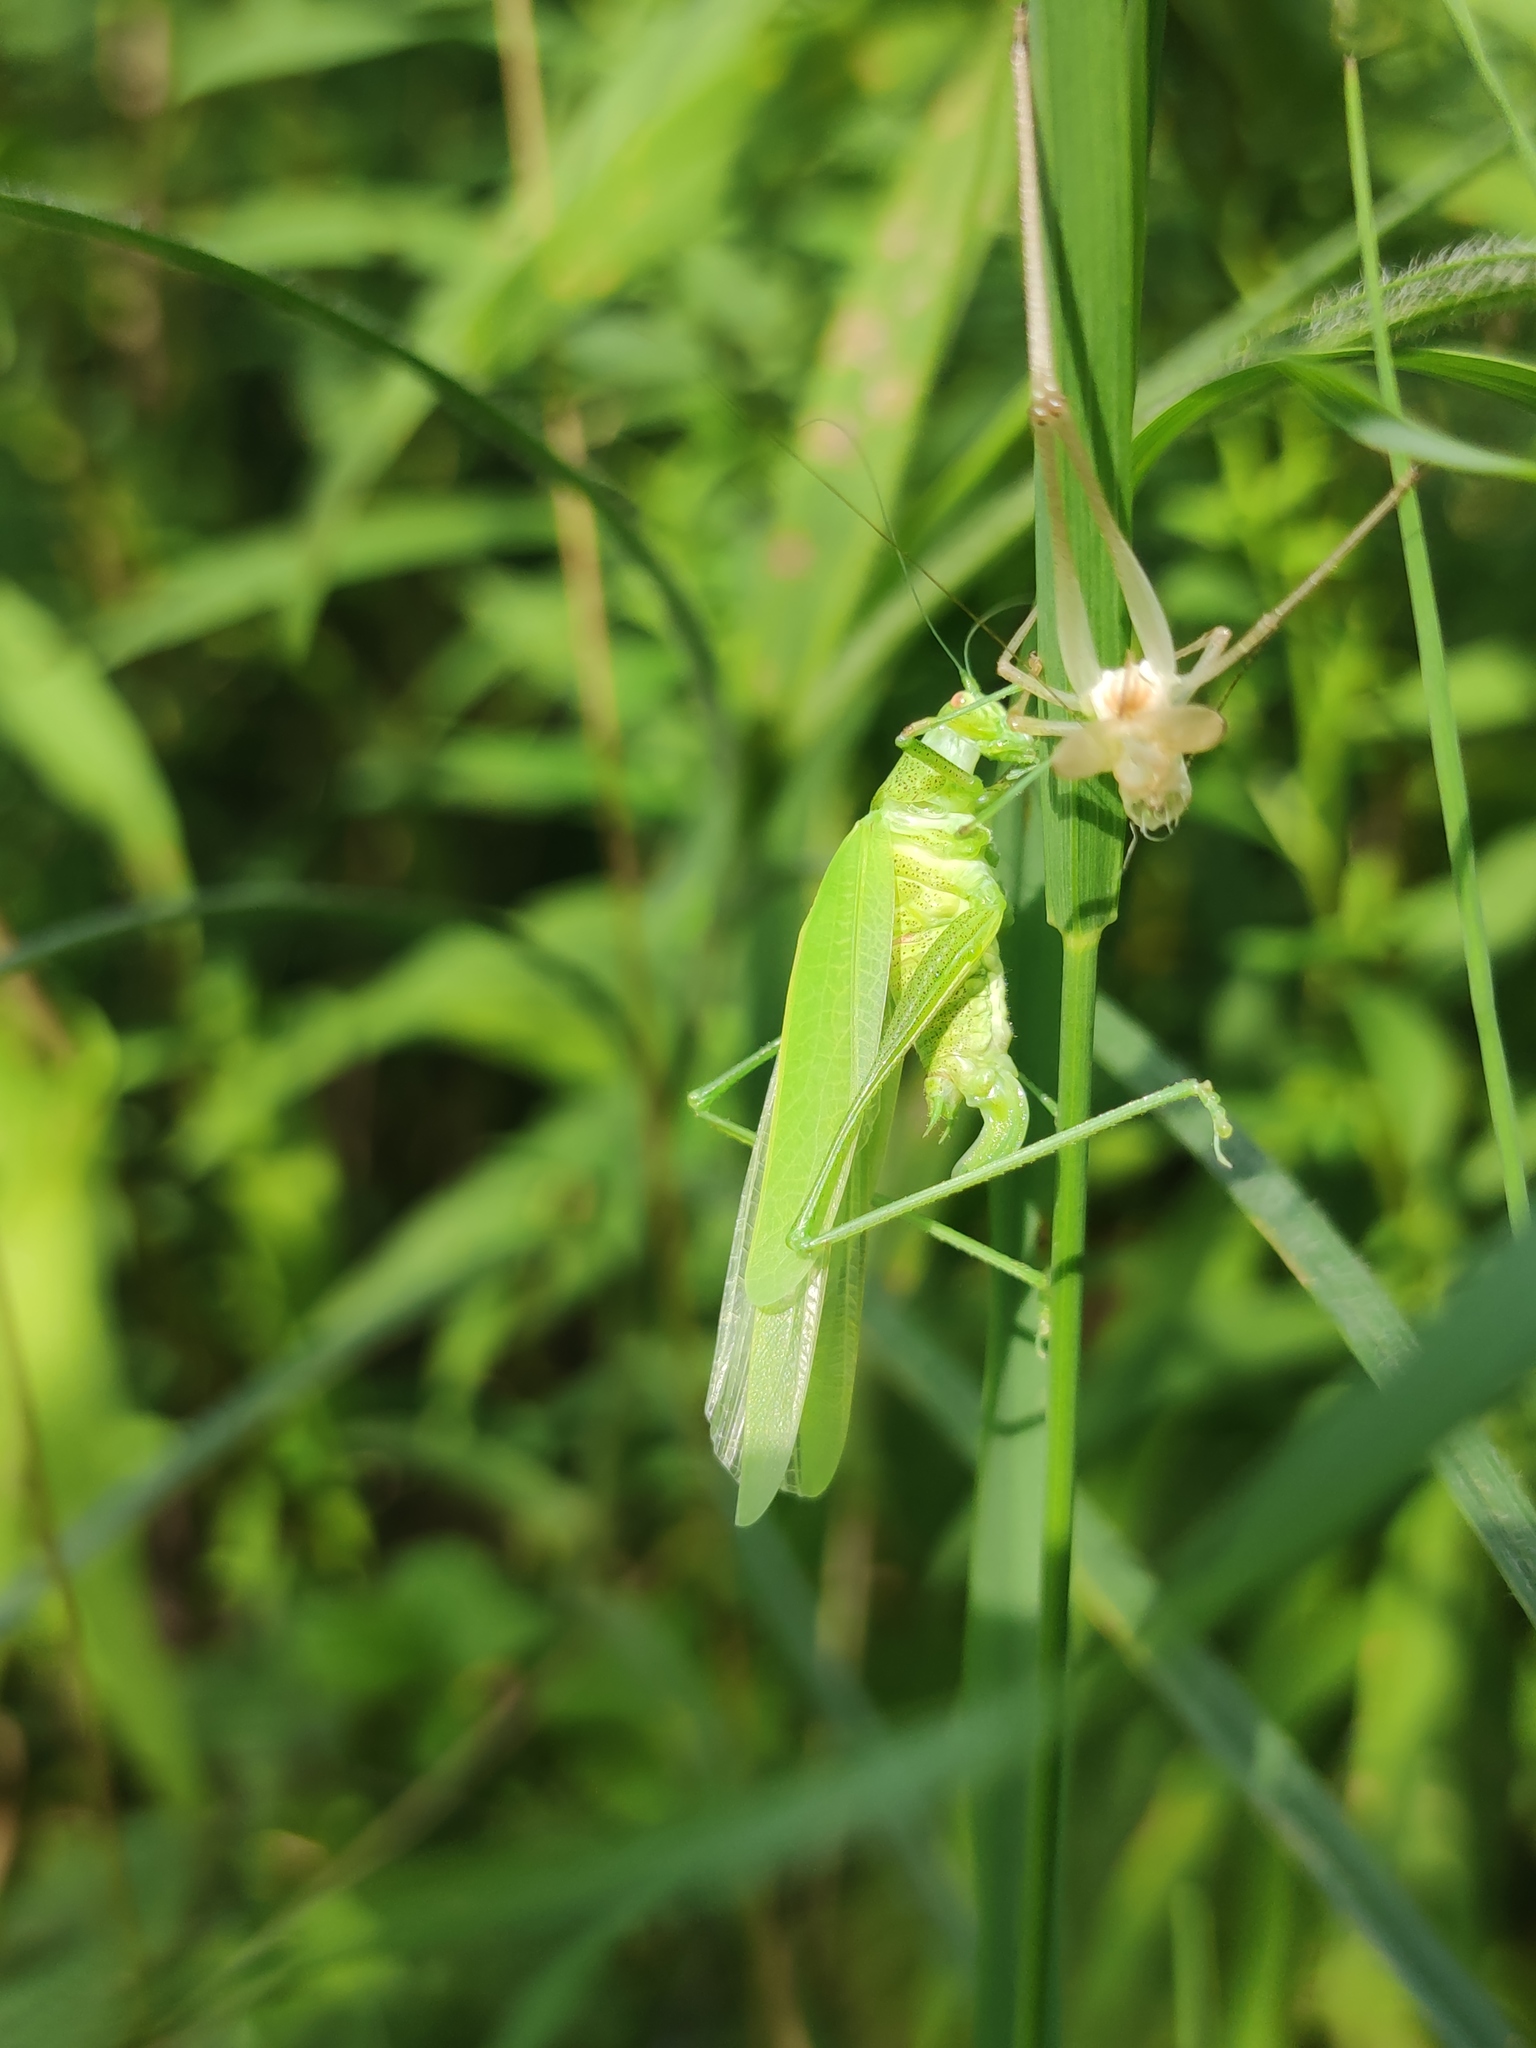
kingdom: Animalia
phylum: Arthropoda
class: Insecta
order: Orthoptera
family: Tettigoniidae
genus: Phaneroptera
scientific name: Phaneroptera nana
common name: Southern sickle bush-cricket
